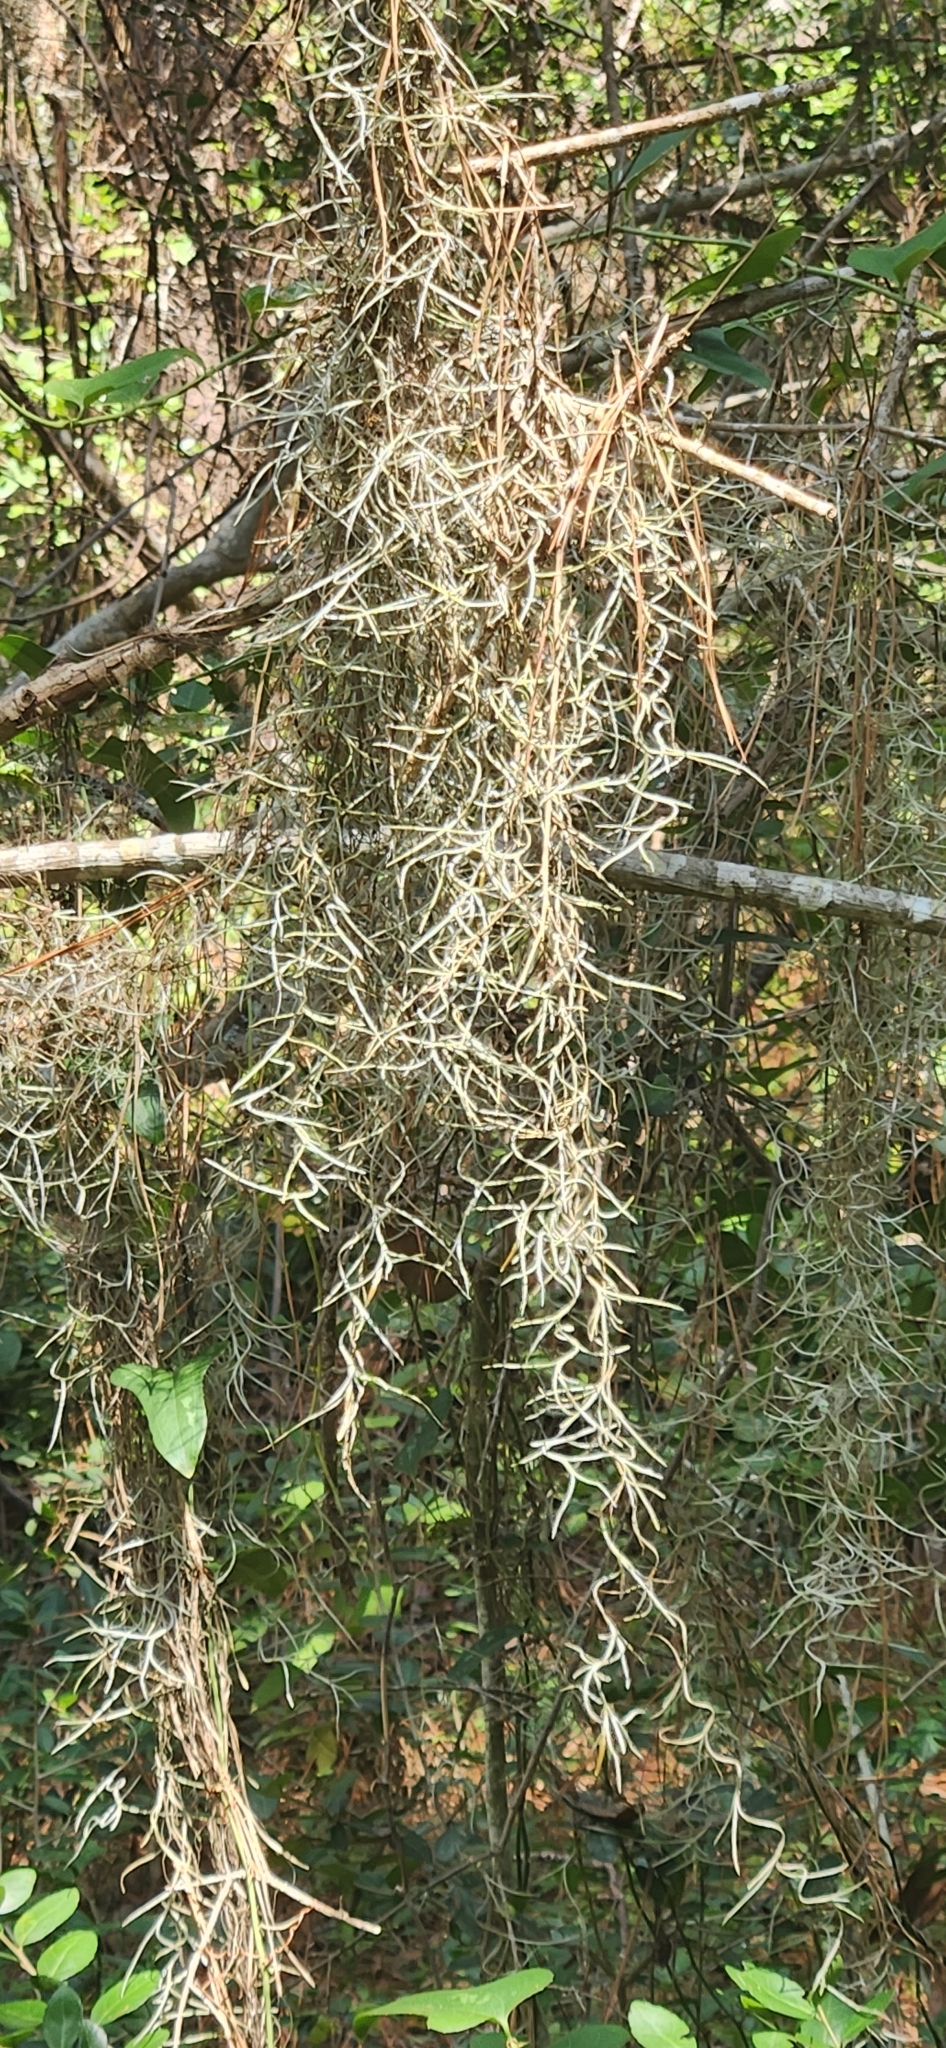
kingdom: Plantae
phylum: Tracheophyta
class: Liliopsida
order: Poales
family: Bromeliaceae
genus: Tillandsia
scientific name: Tillandsia usneoides
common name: Spanish moss
